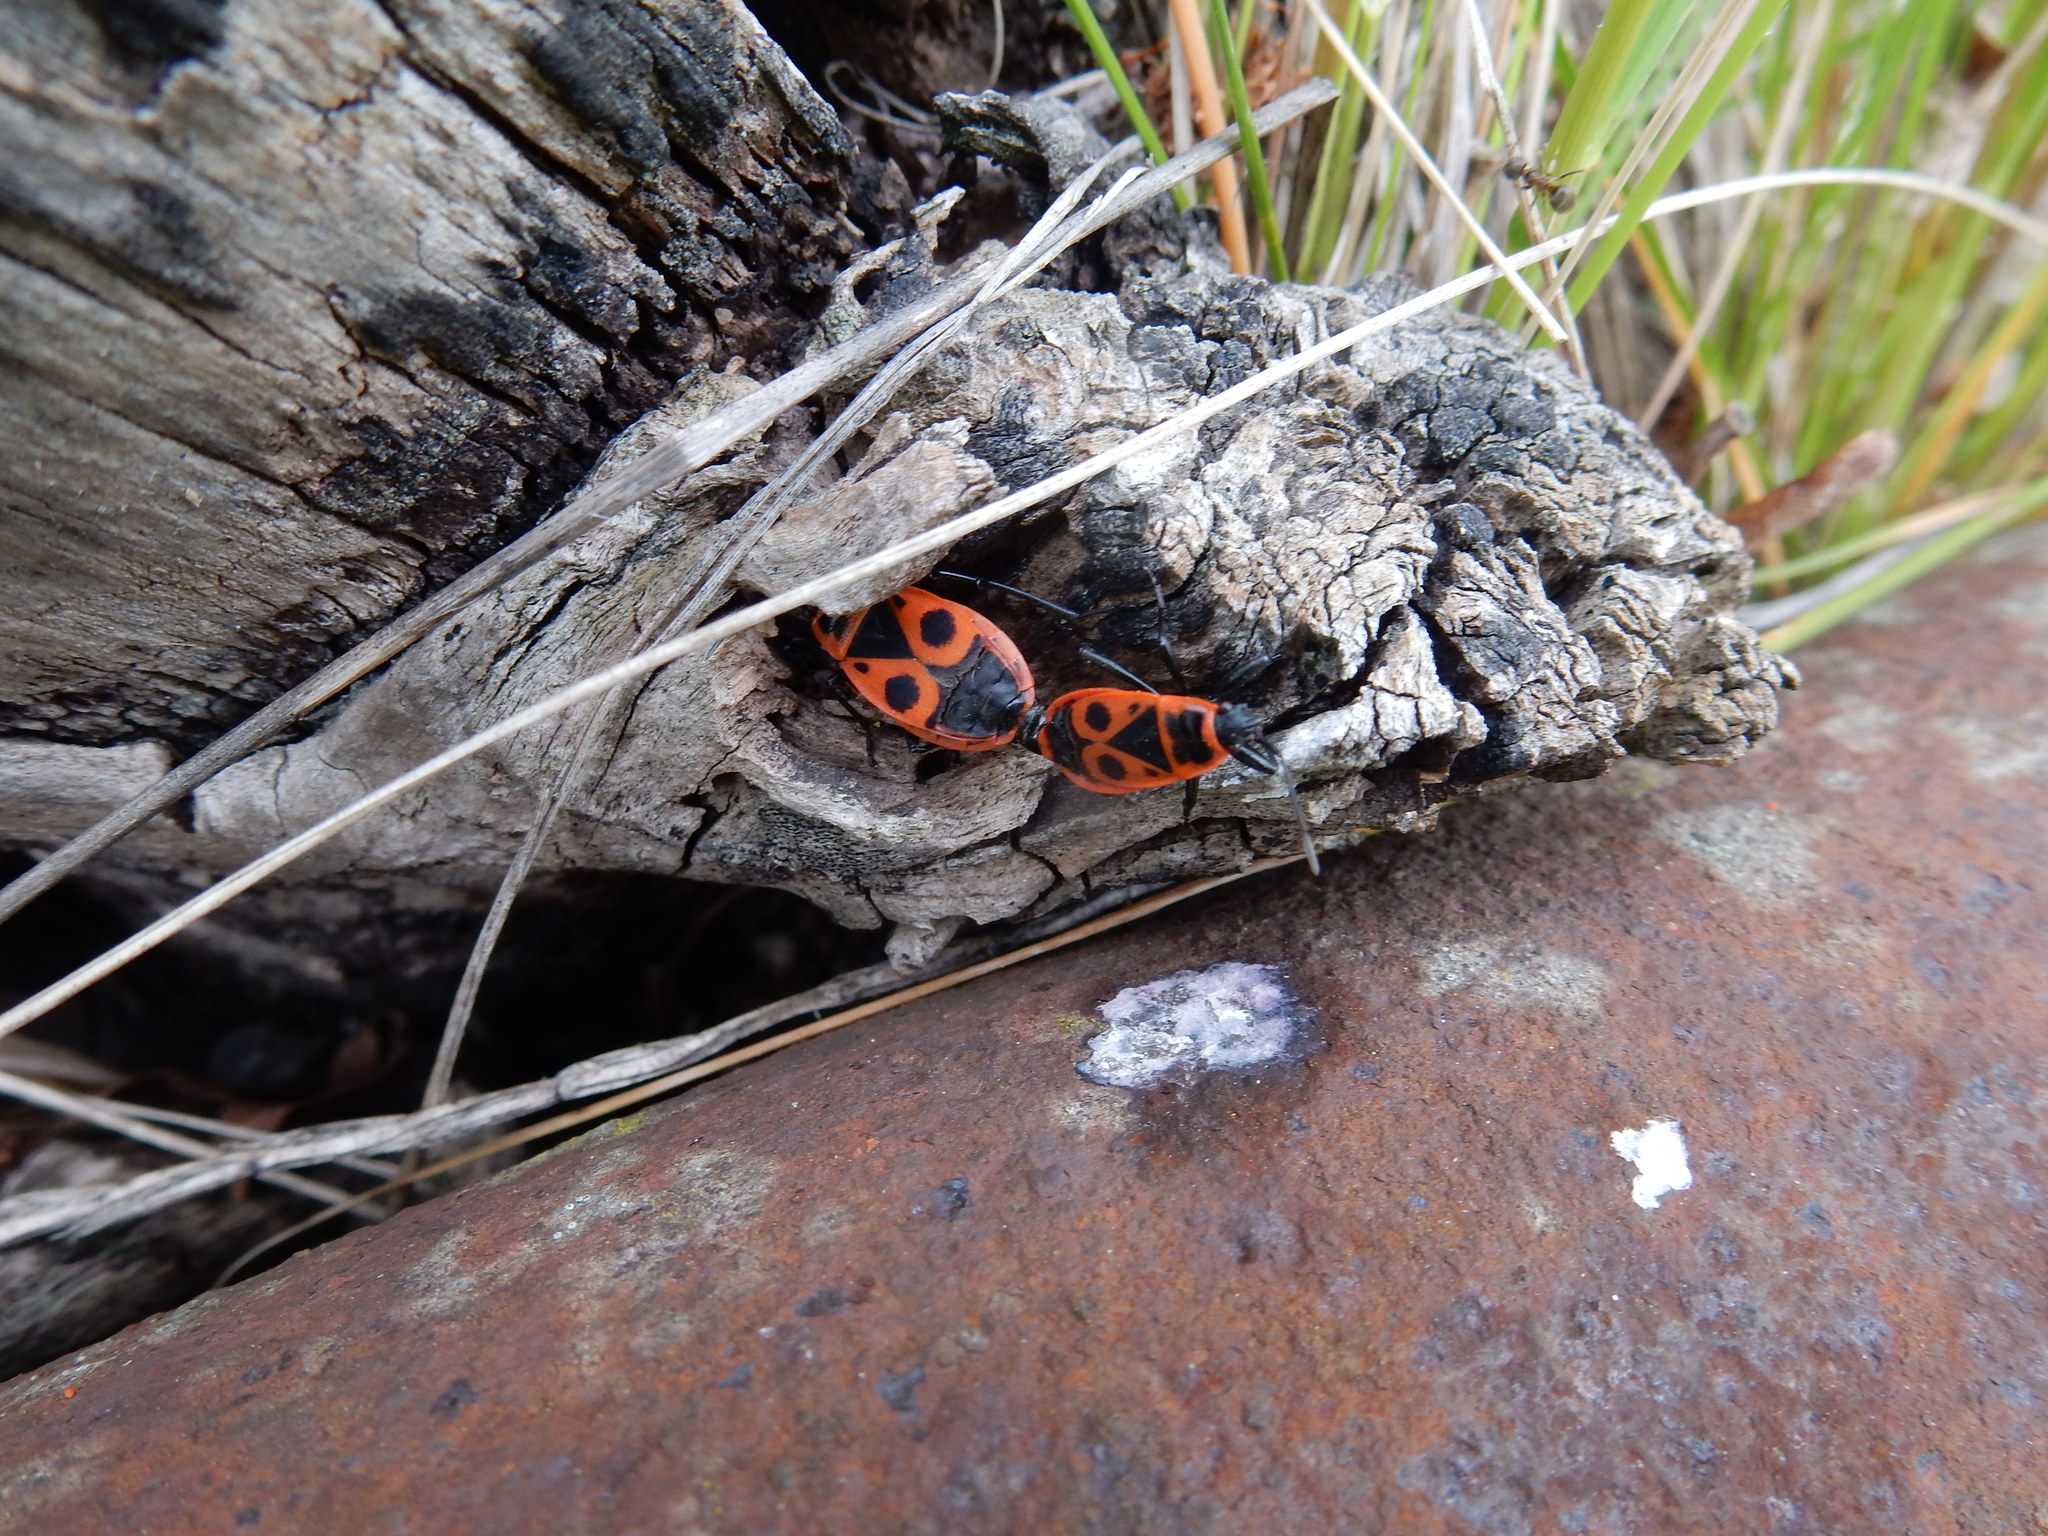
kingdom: Animalia
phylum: Arthropoda
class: Insecta
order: Hemiptera
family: Pyrrhocoridae
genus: Pyrrhocoris
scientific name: Pyrrhocoris apterus
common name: Firebug
